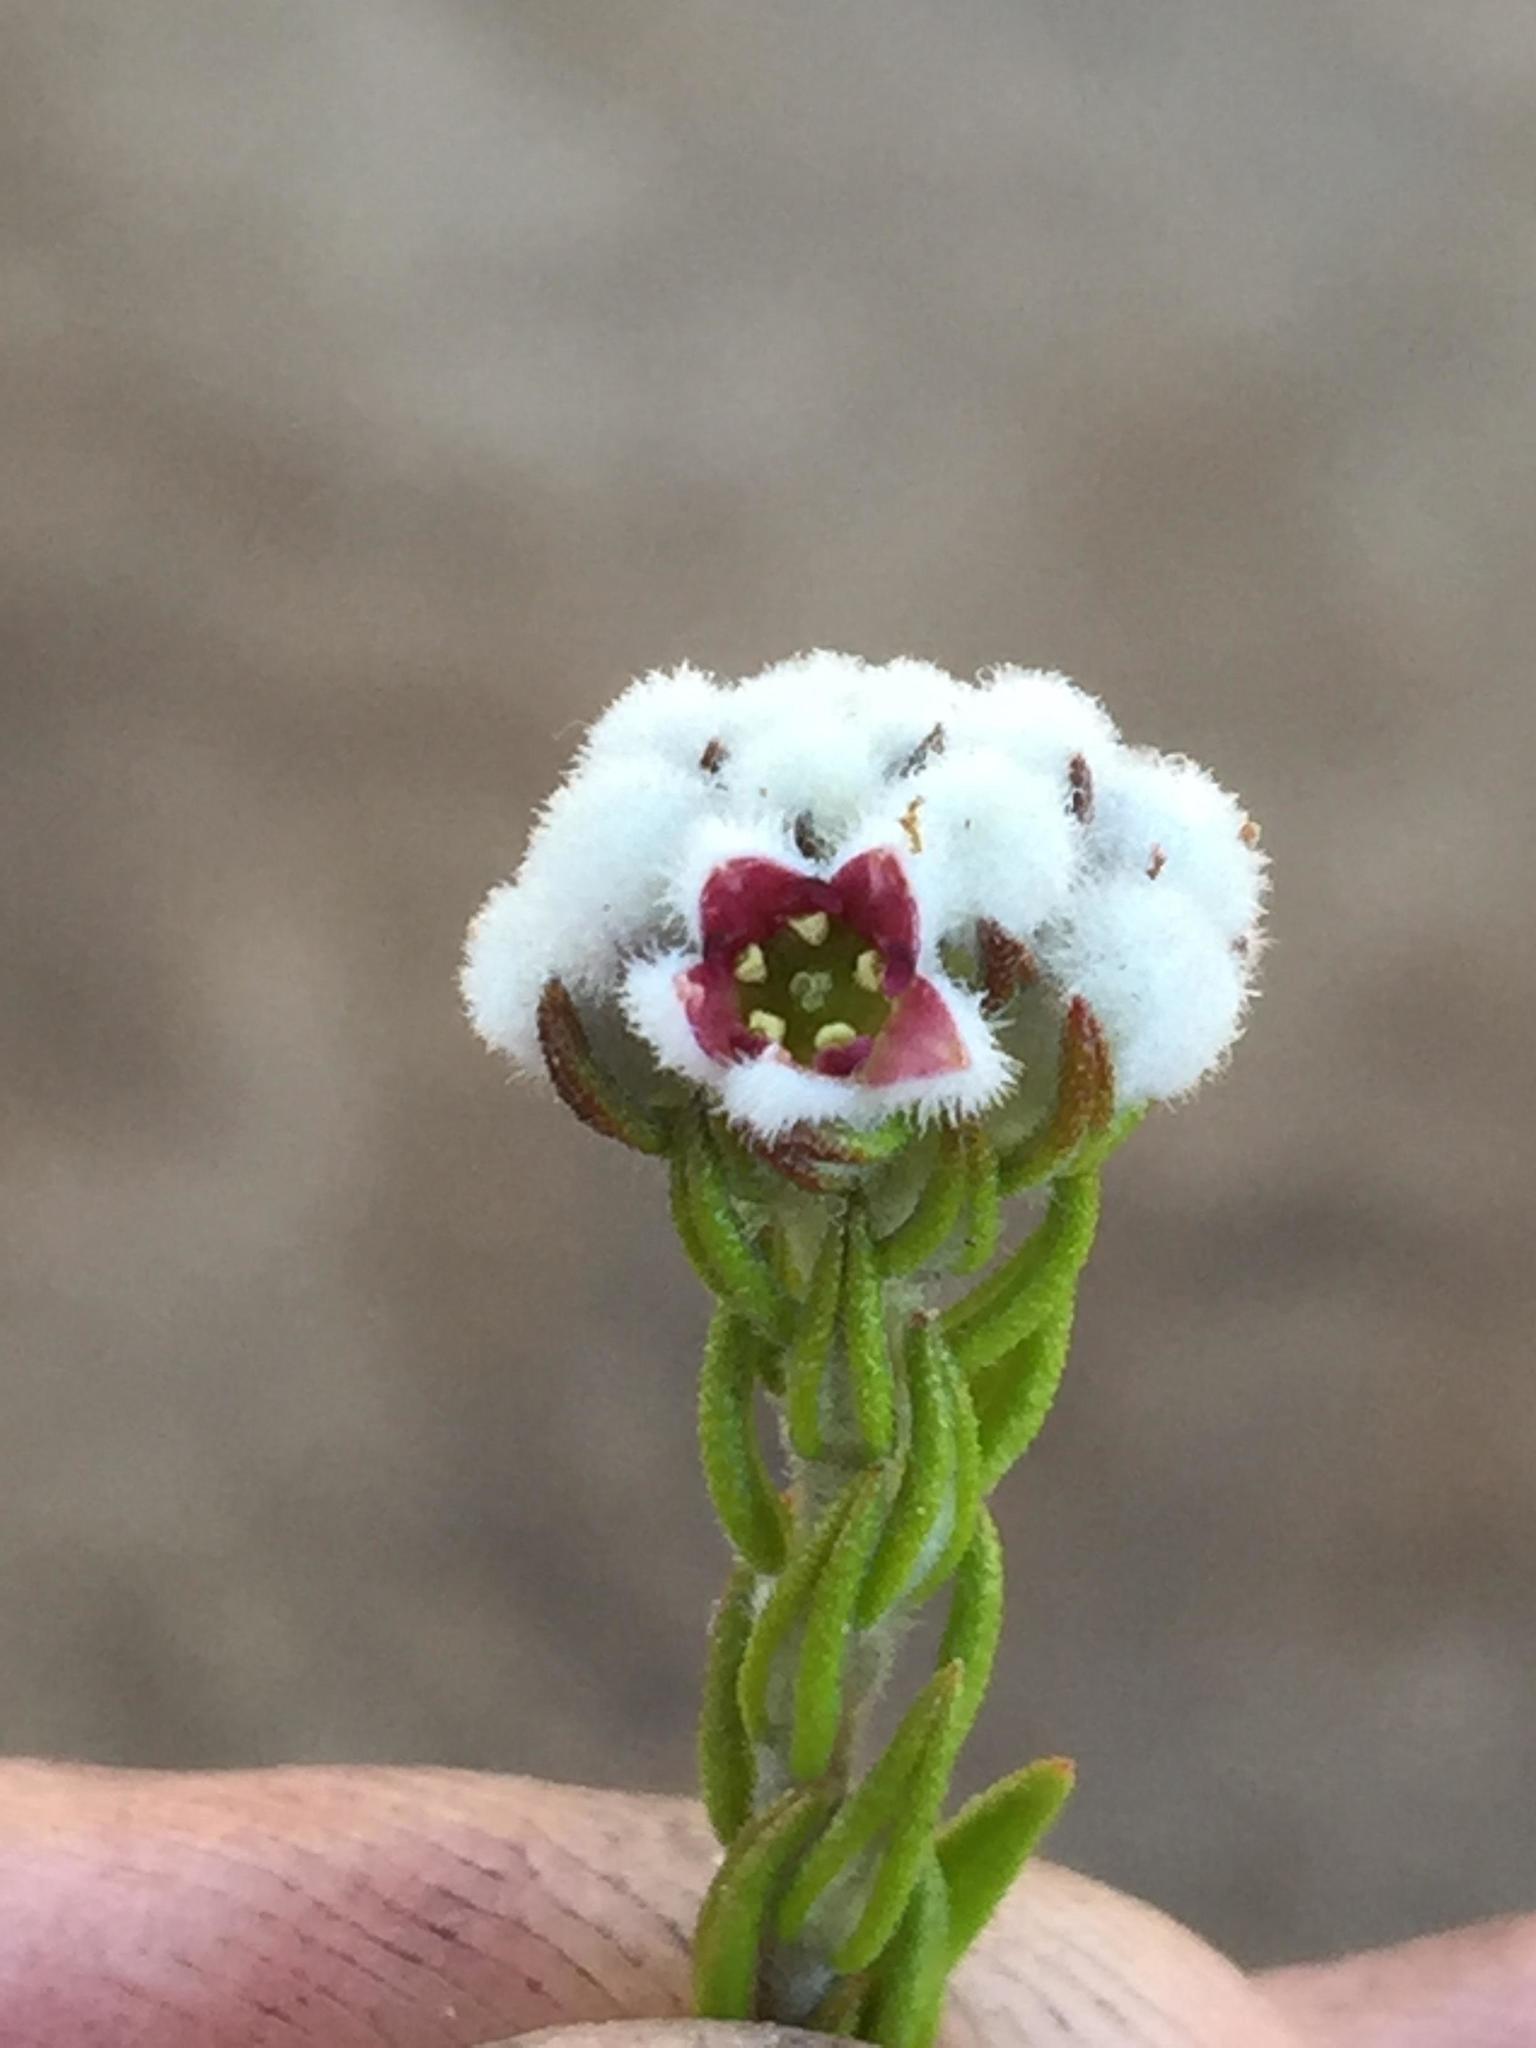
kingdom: Plantae
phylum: Tracheophyta
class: Magnoliopsida
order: Rosales
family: Rhamnaceae
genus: Phylica
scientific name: Phylica purpurea
